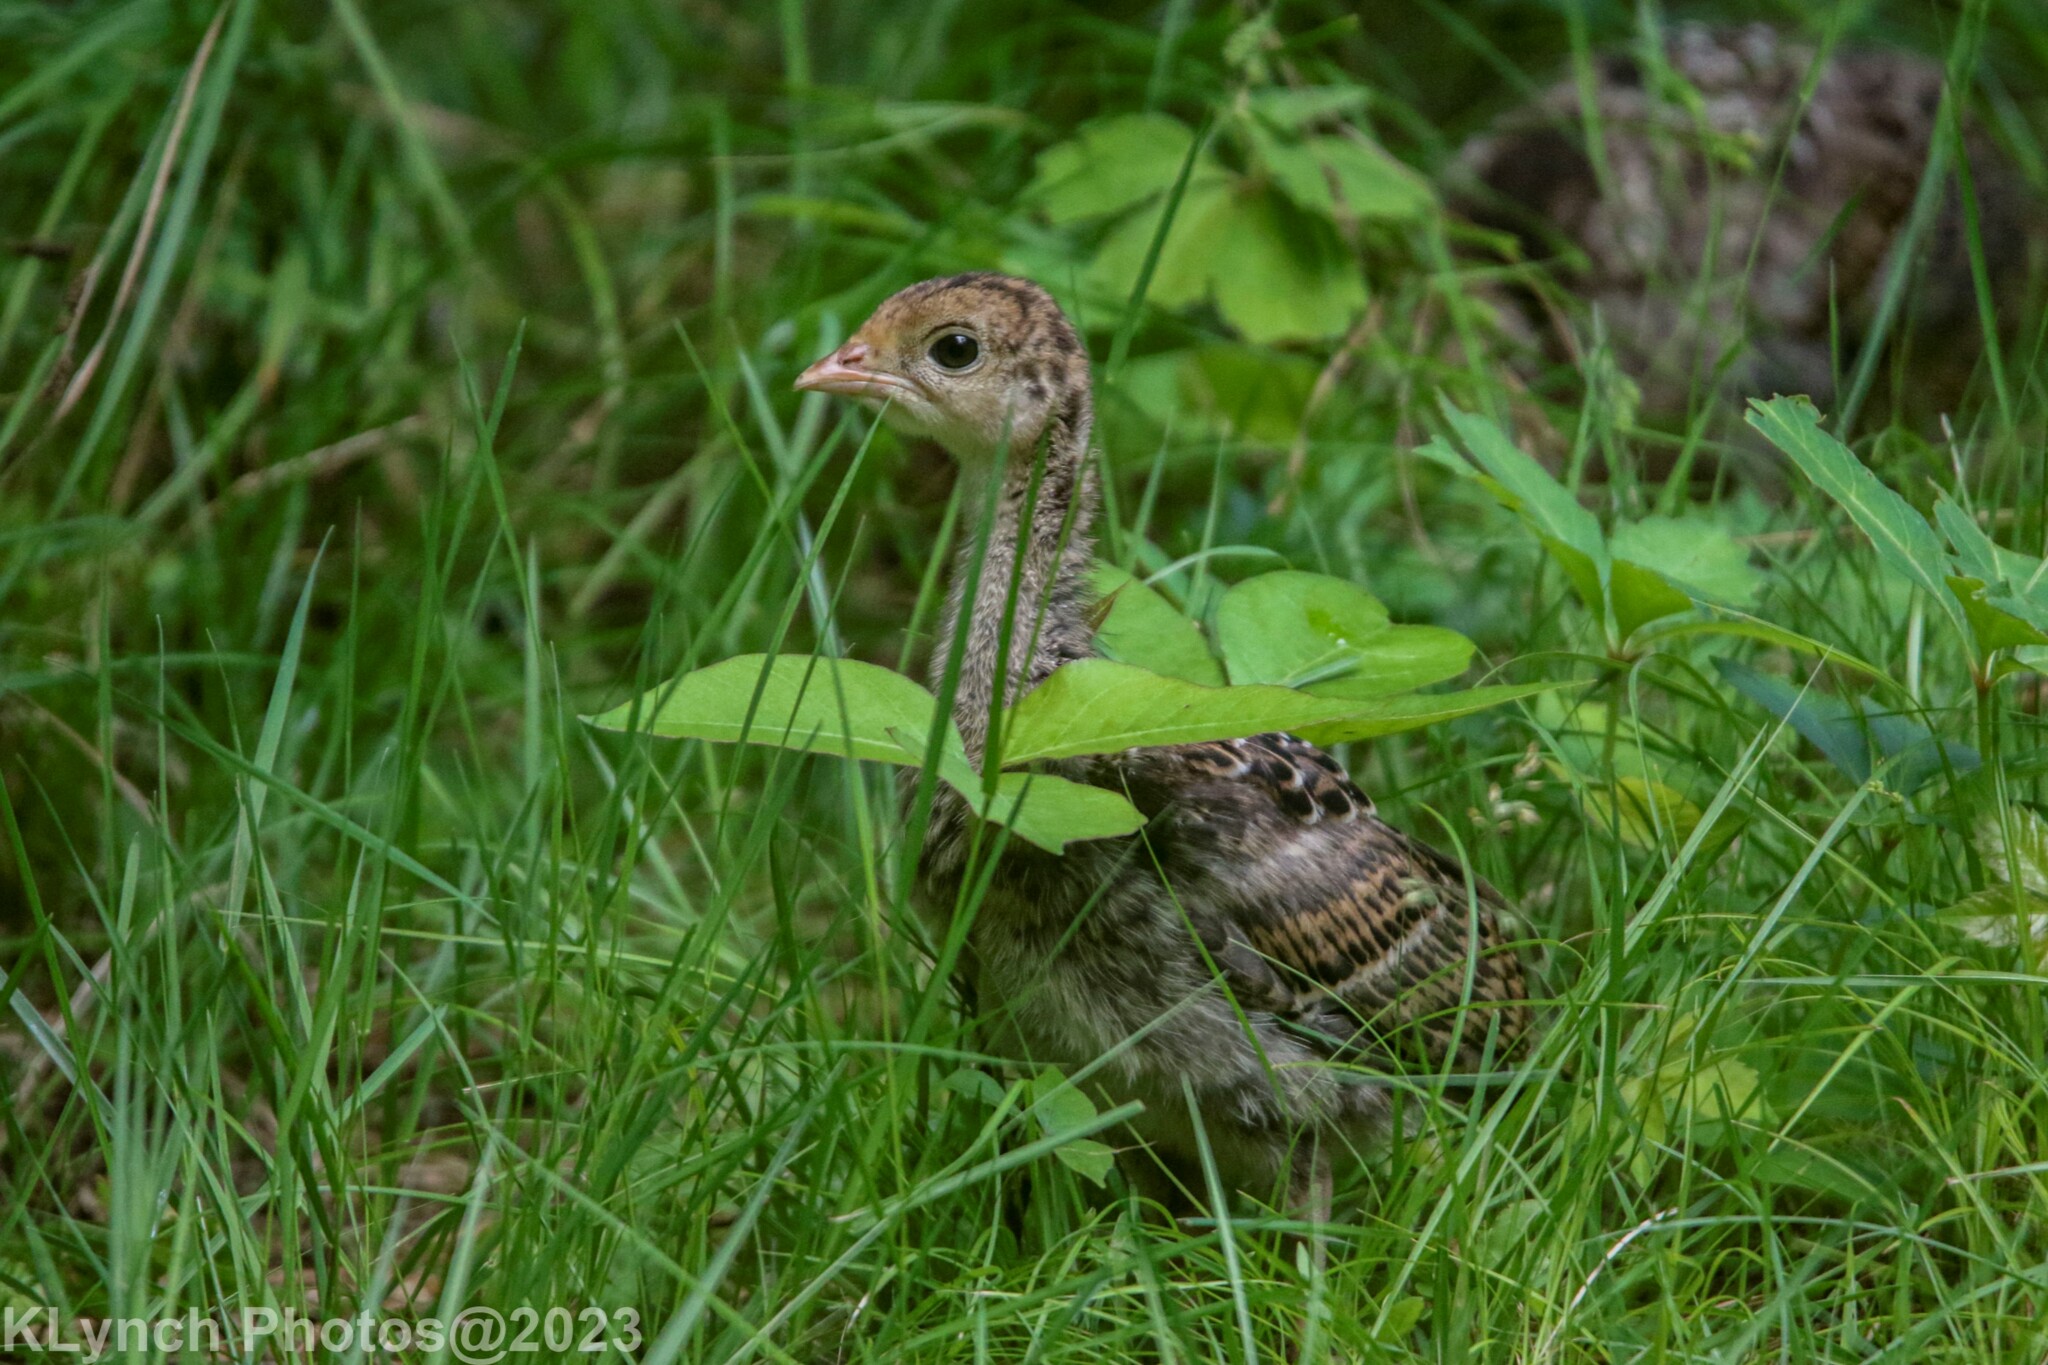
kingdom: Animalia
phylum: Chordata
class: Aves
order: Galliformes
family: Phasianidae
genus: Meleagris
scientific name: Meleagris gallopavo
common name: Wild turkey
